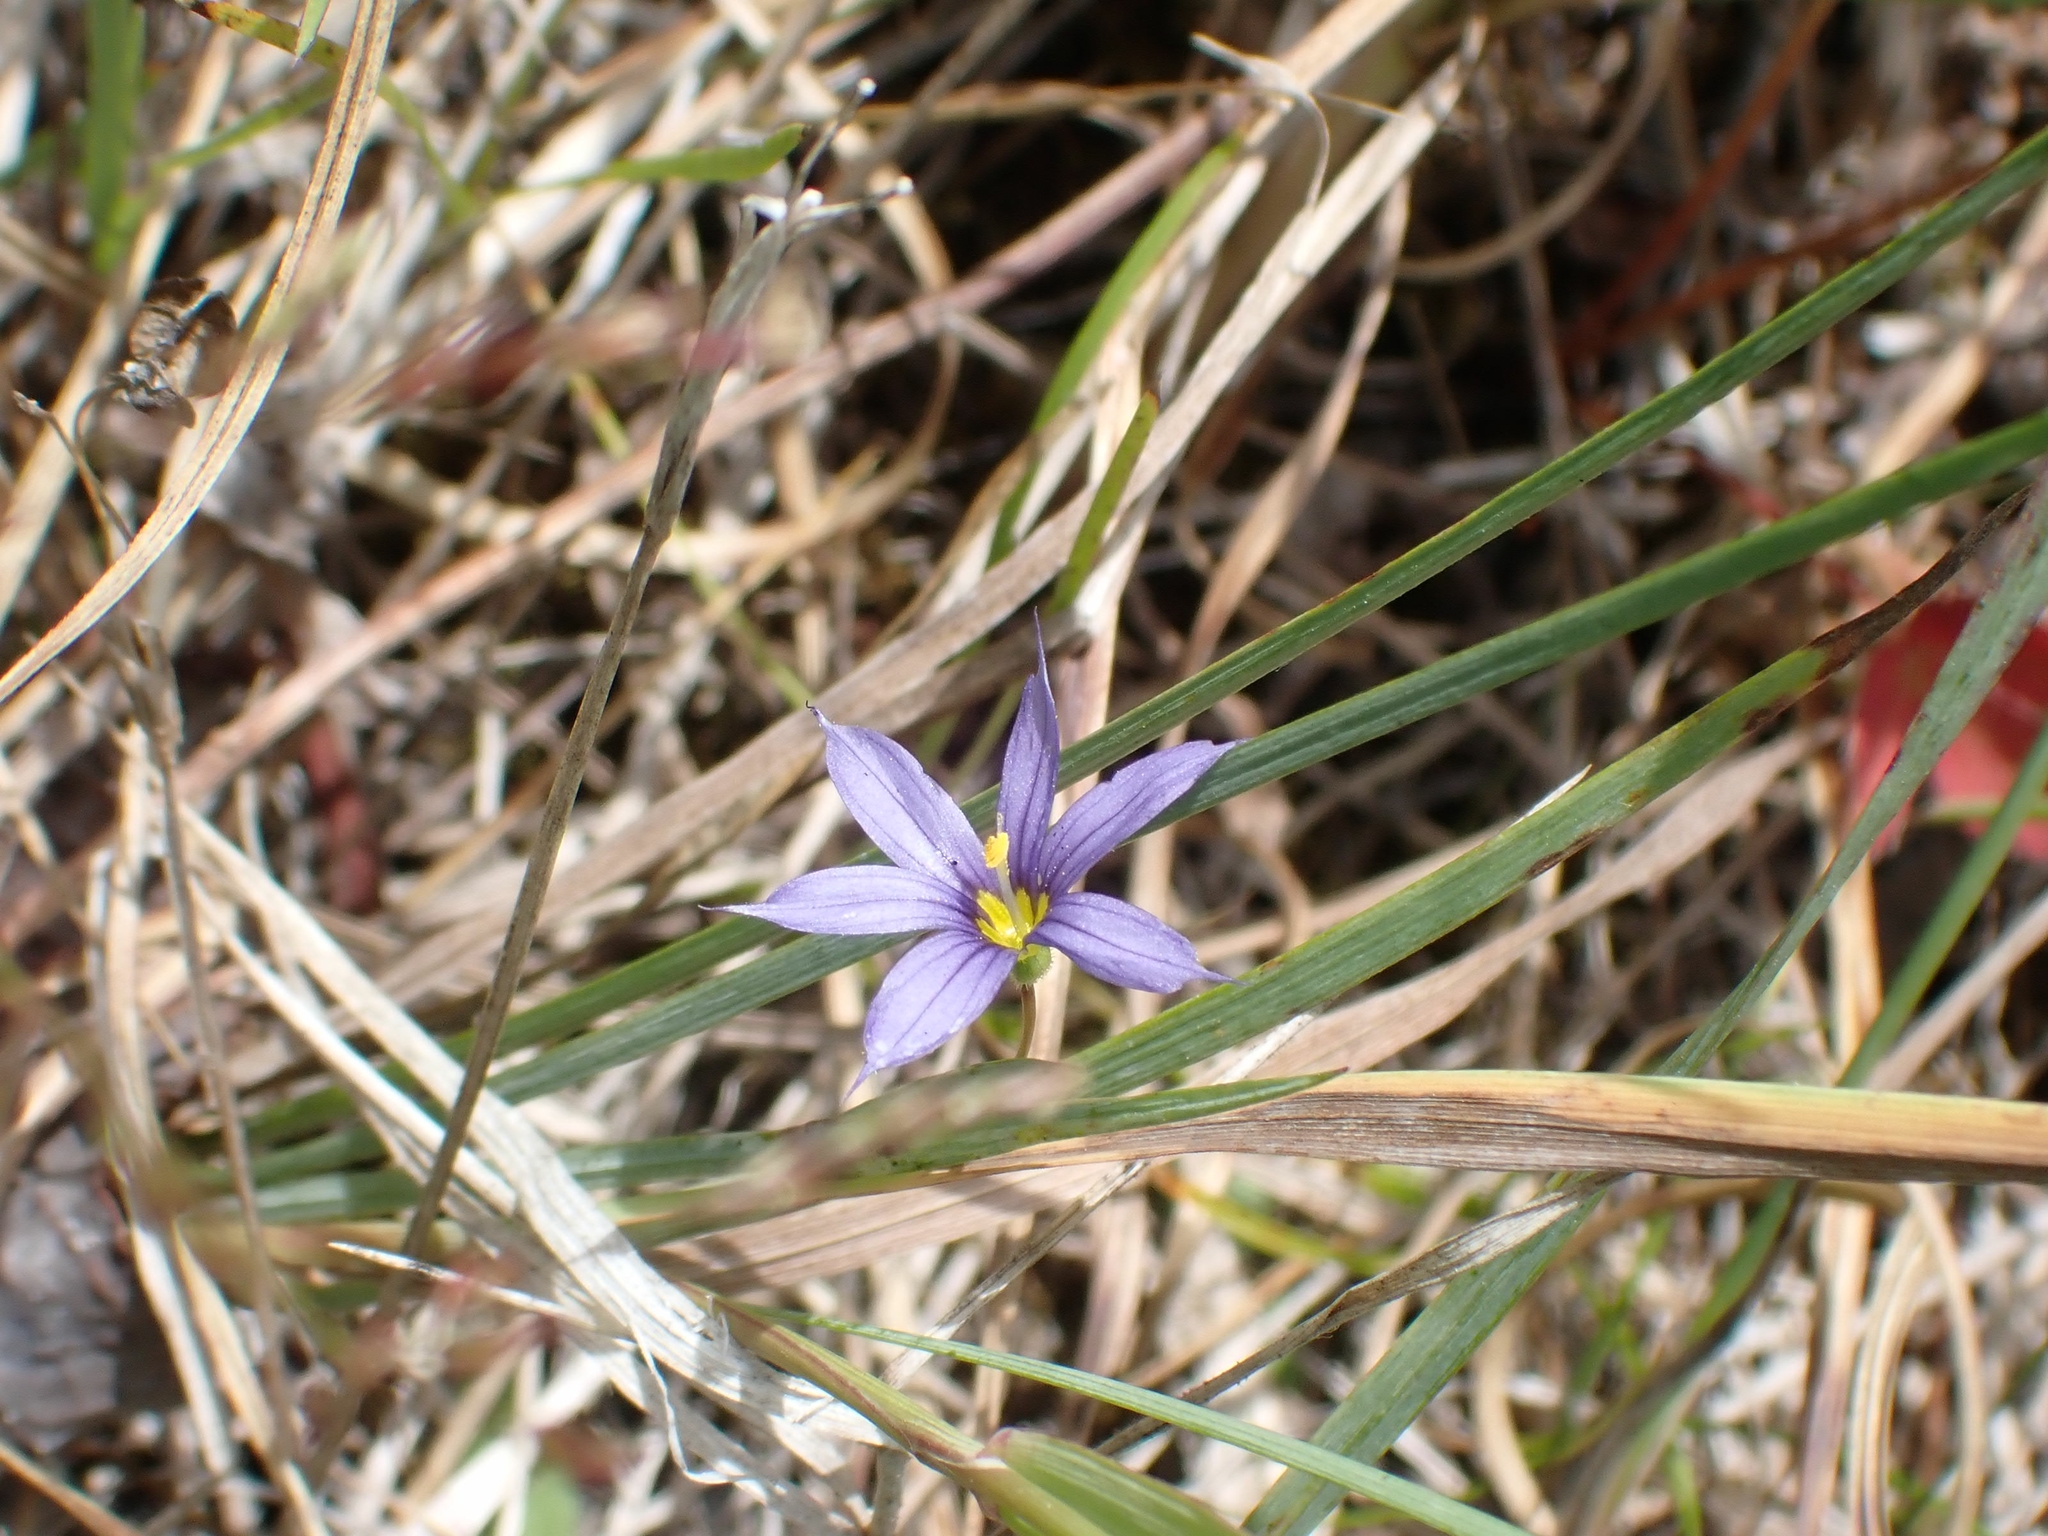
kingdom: Plantae
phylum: Tracheophyta
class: Liliopsida
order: Asparagales
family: Iridaceae
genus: Sisyrinchium
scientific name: Sisyrinchium montanum
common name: American blue-eyed-grass
